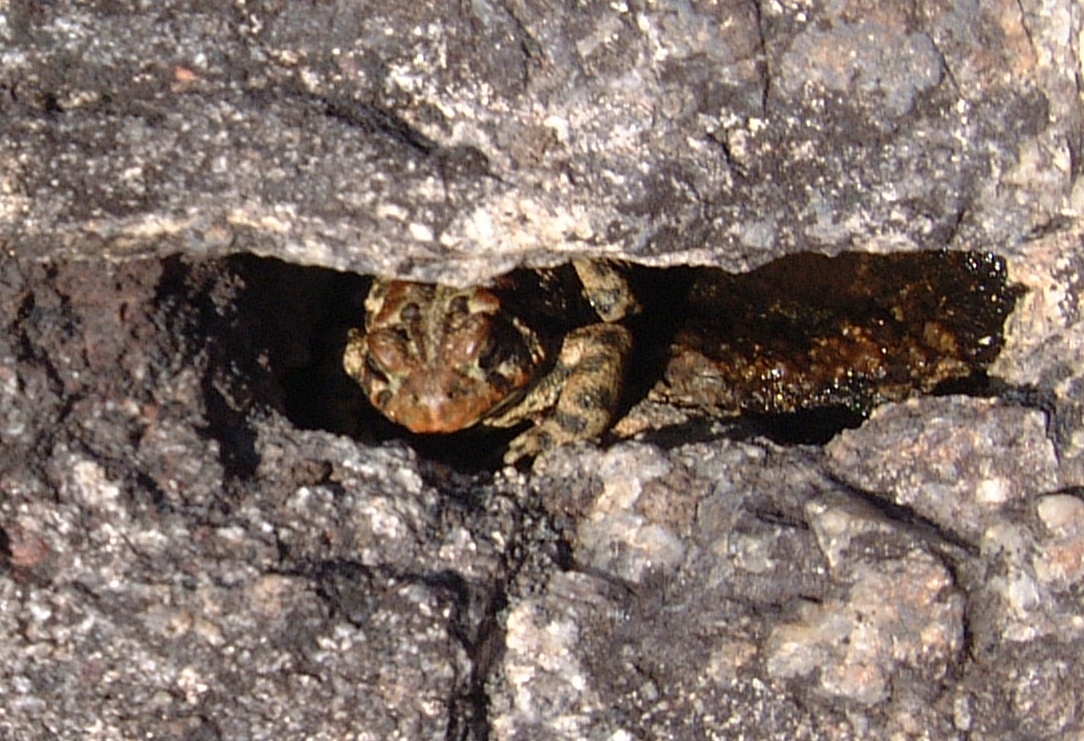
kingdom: Animalia
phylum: Chordata
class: Amphibia
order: Anura
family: Bufonidae
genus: Anaxyrus
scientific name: Anaxyrus americanus
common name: American toad
